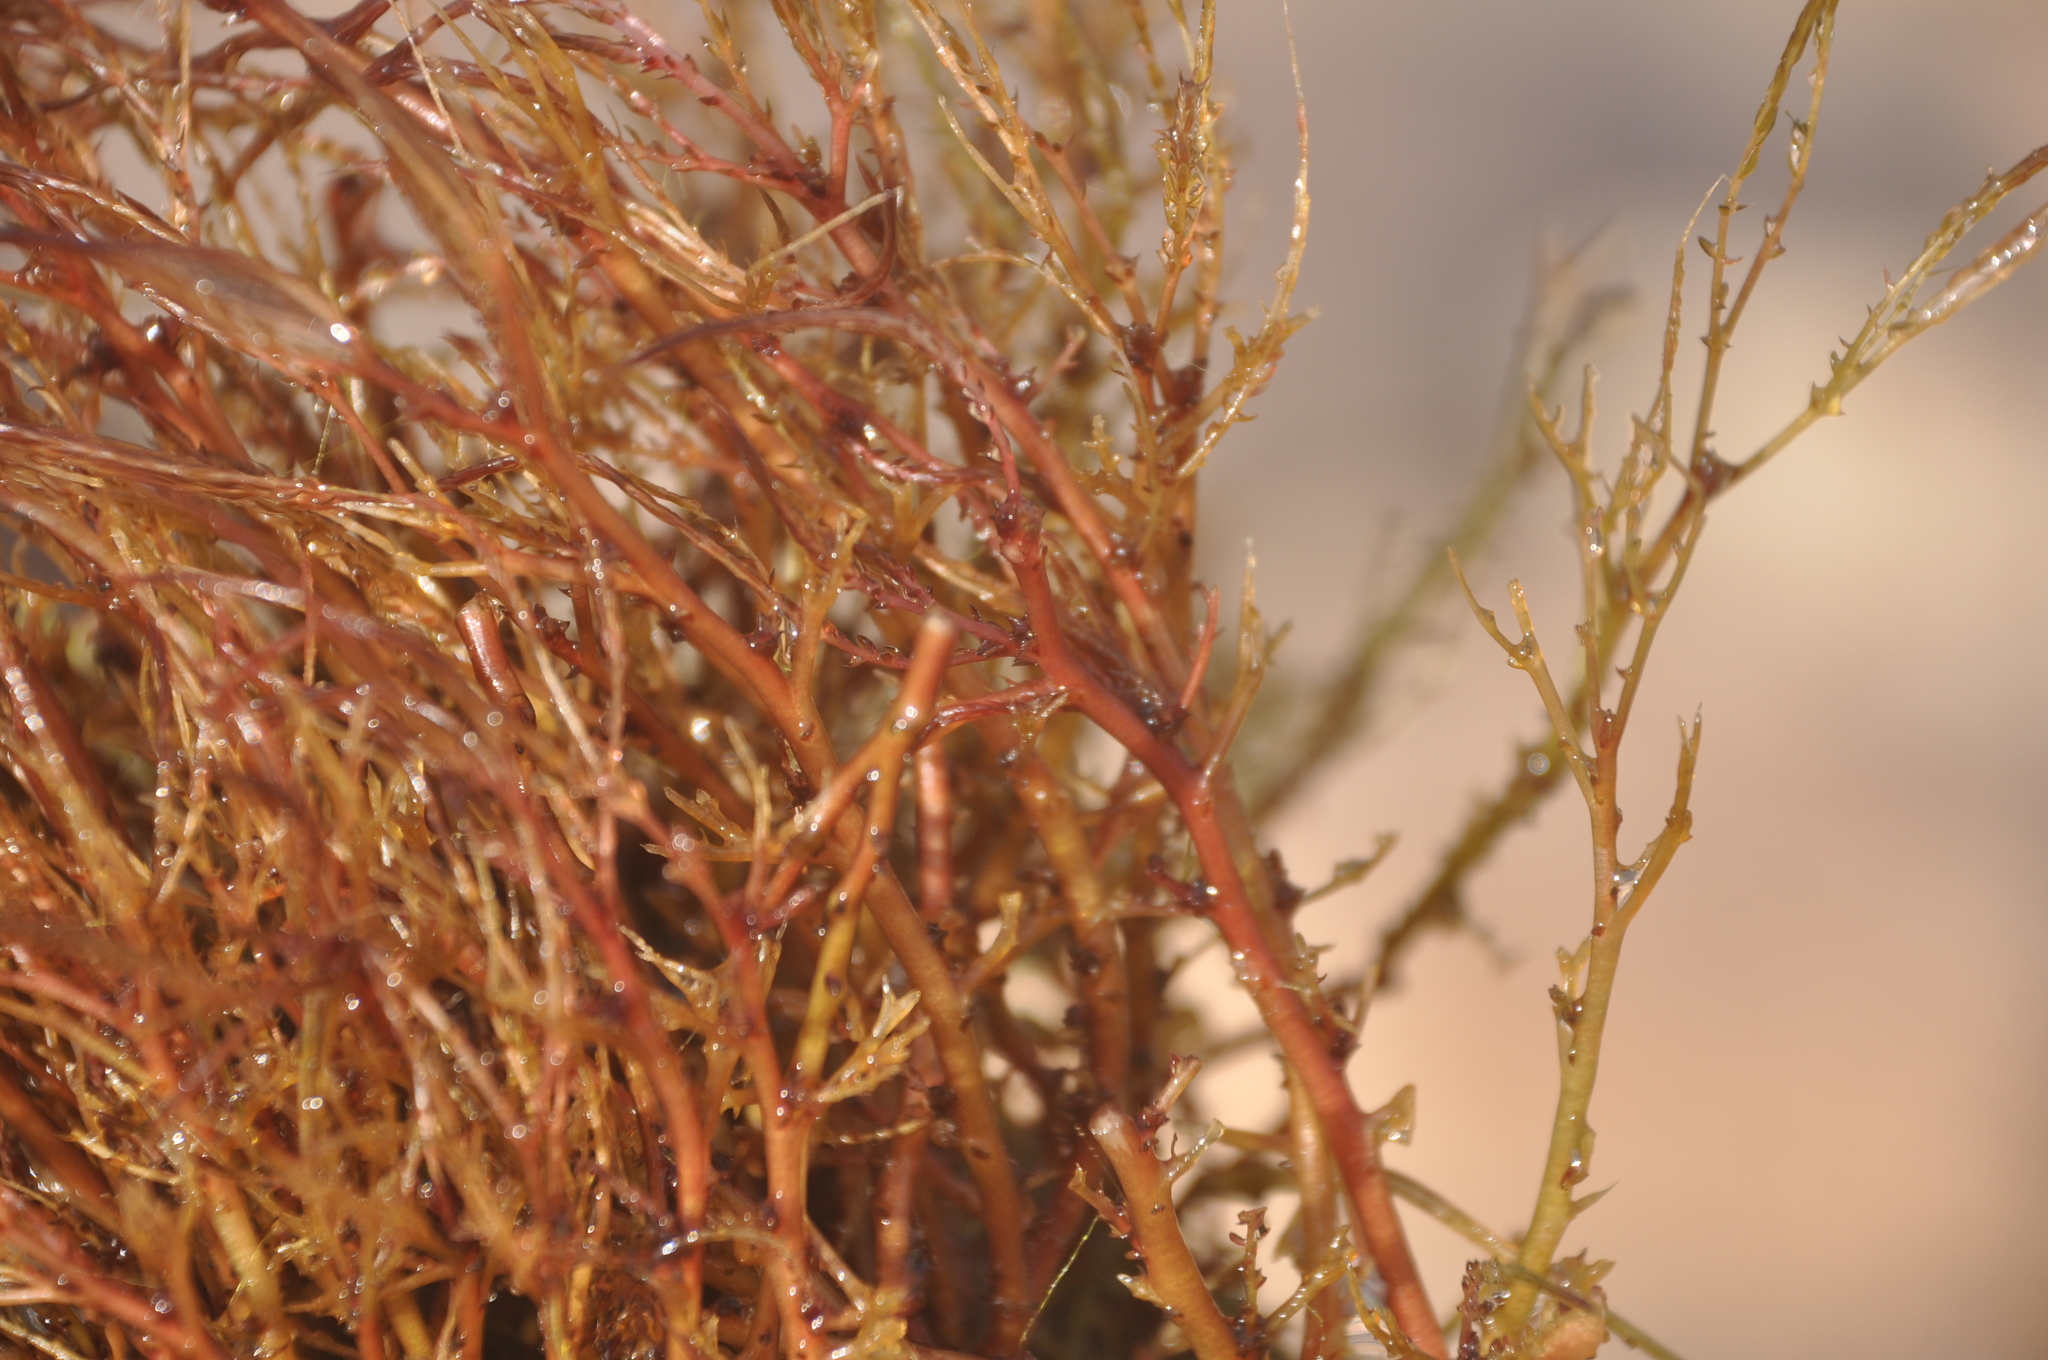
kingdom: Plantae
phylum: Tracheophyta
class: Magnoliopsida
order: Malpighiales
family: Podostemaceae
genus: Inversodicraea
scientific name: Inversodicraea warmingiana
